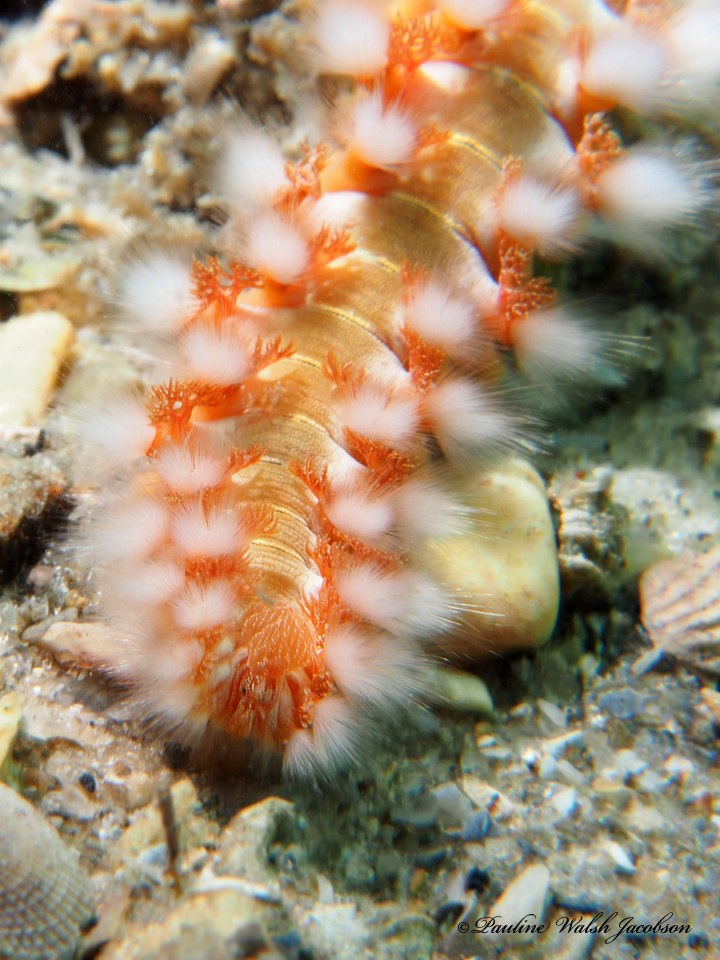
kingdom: Animalia
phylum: Annelida
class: Polychaeta
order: Amphinomida
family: Amphinomidae
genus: Hermodice
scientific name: Hermodice carunculata
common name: Bearded fireworm
